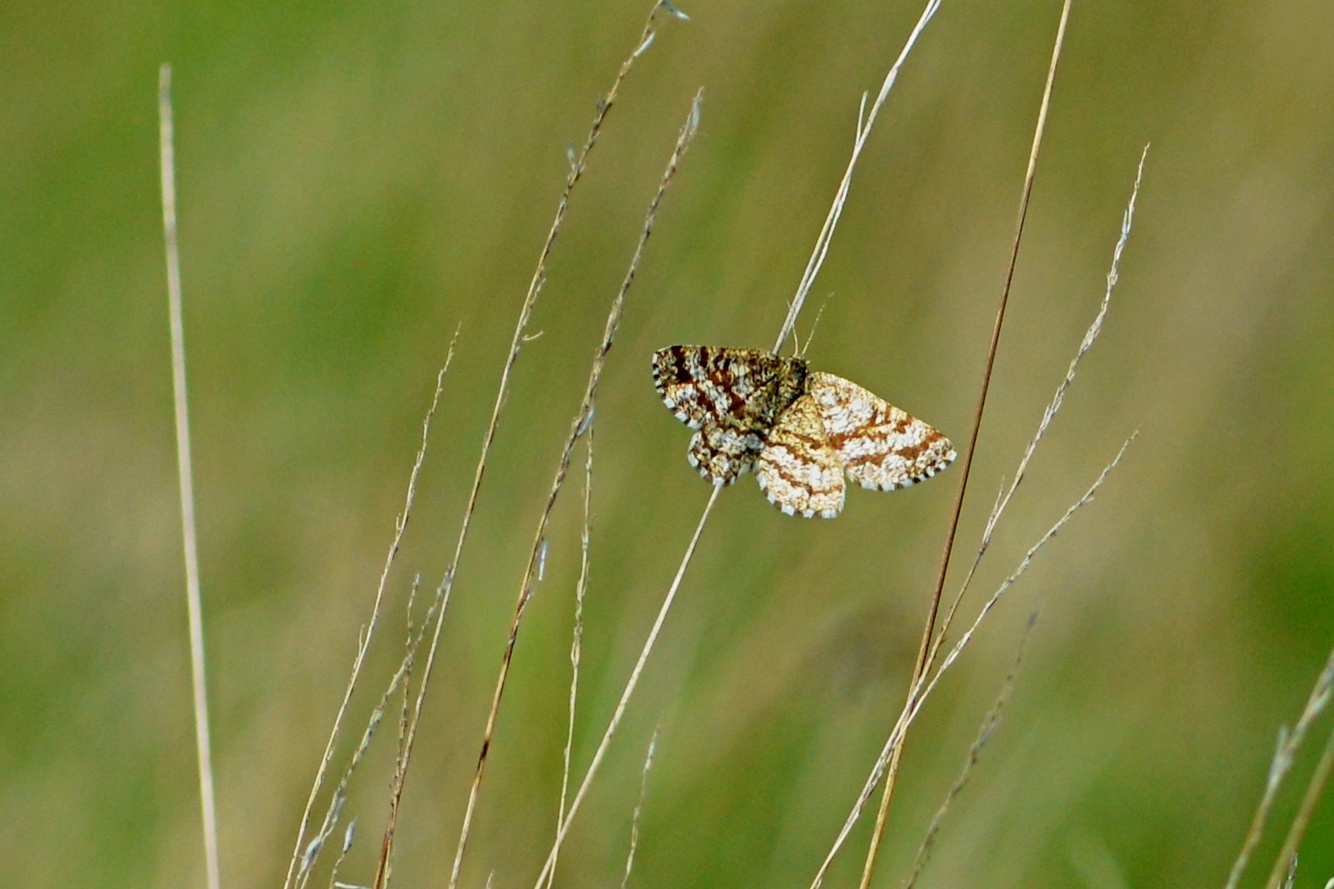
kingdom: Animalia
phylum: Arthropoda
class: Insecta
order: Lepidoptera
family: Geometridae
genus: Ematurga
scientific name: Ematurga atomaria
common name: Common heath
